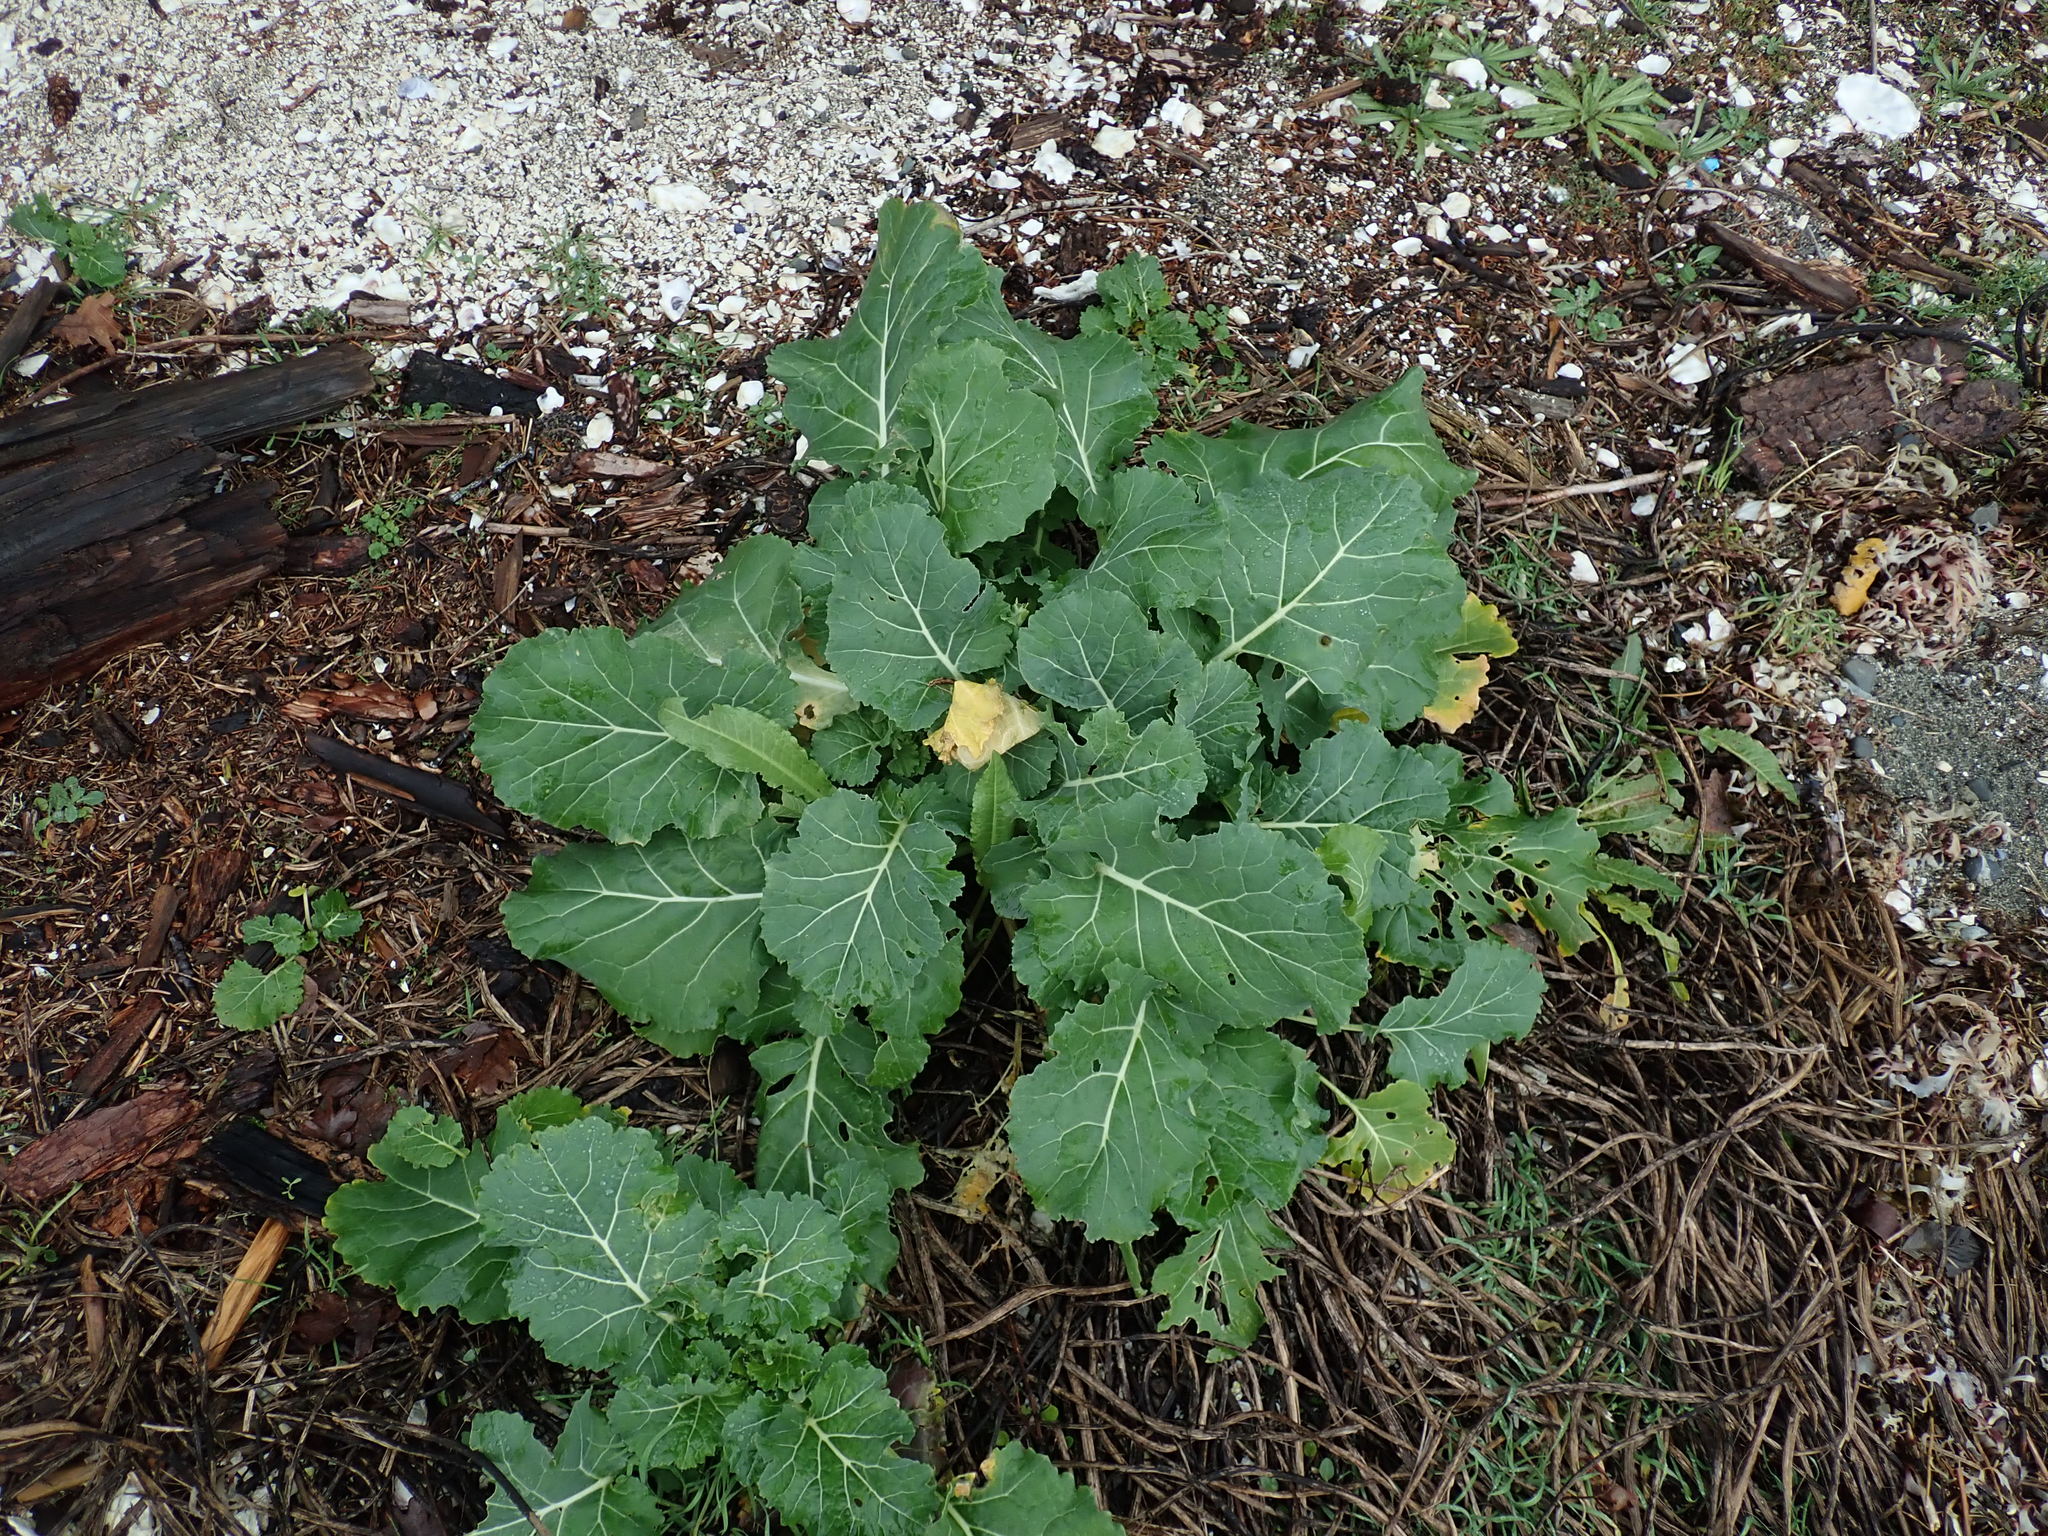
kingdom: Plantae
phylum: Tracheophyta
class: Magnoliopsida
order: Brassicales
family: Brassicaceae
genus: Brassica
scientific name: Brassica oleracea
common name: Cabbage
